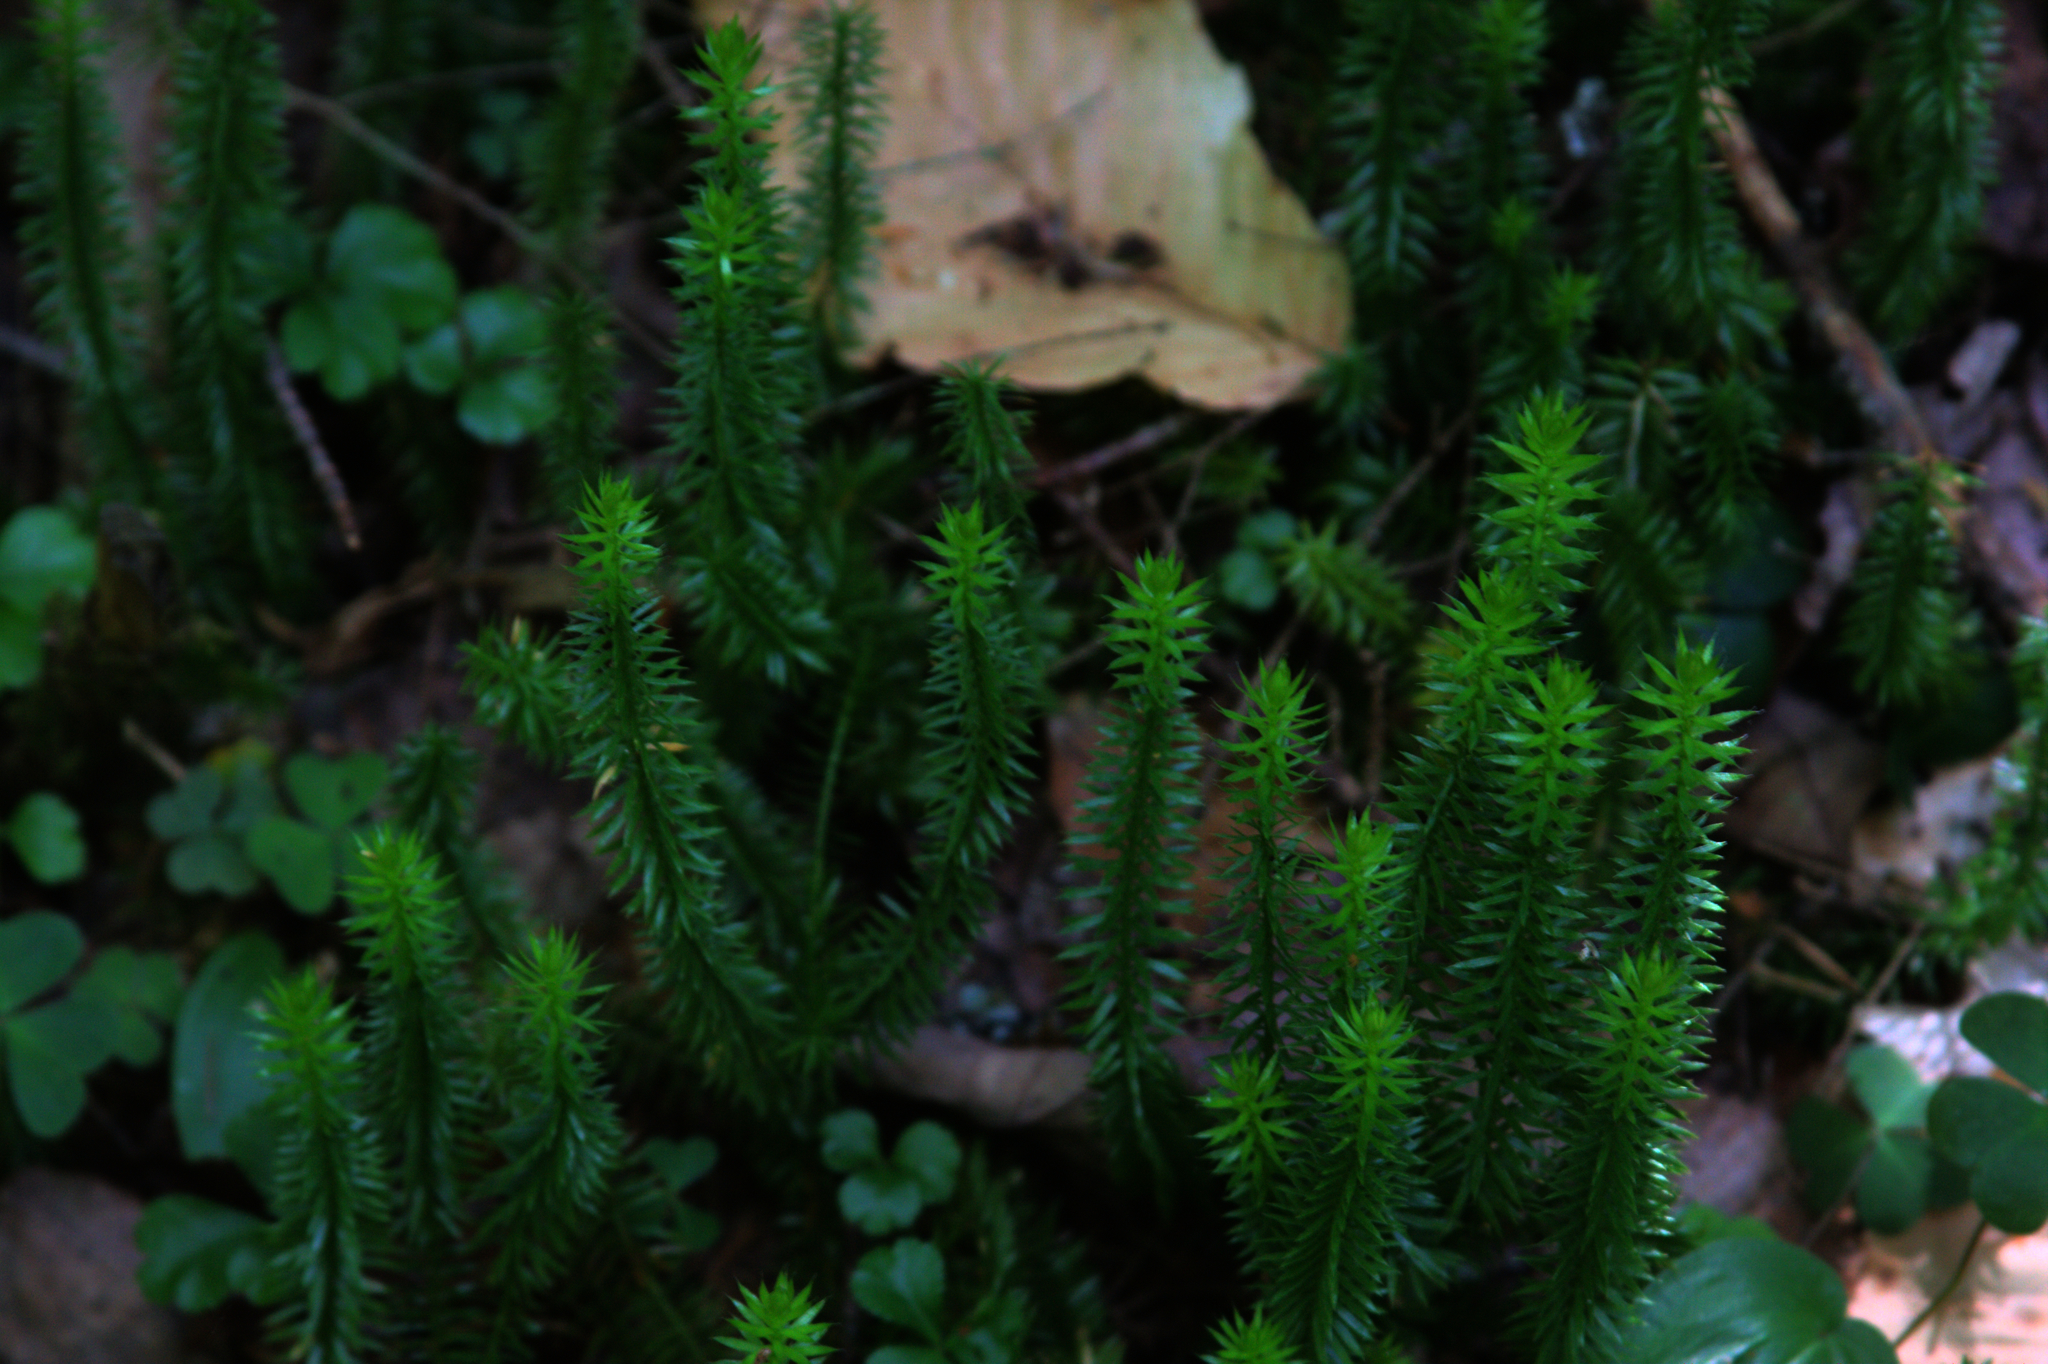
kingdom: Plantae
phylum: Tracheophyta
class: Lycopodiopsida
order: Lycopodiales
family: Lycopodiaceae
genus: Spinulum
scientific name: Spinulum annotinum
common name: Interrupted club-moss
